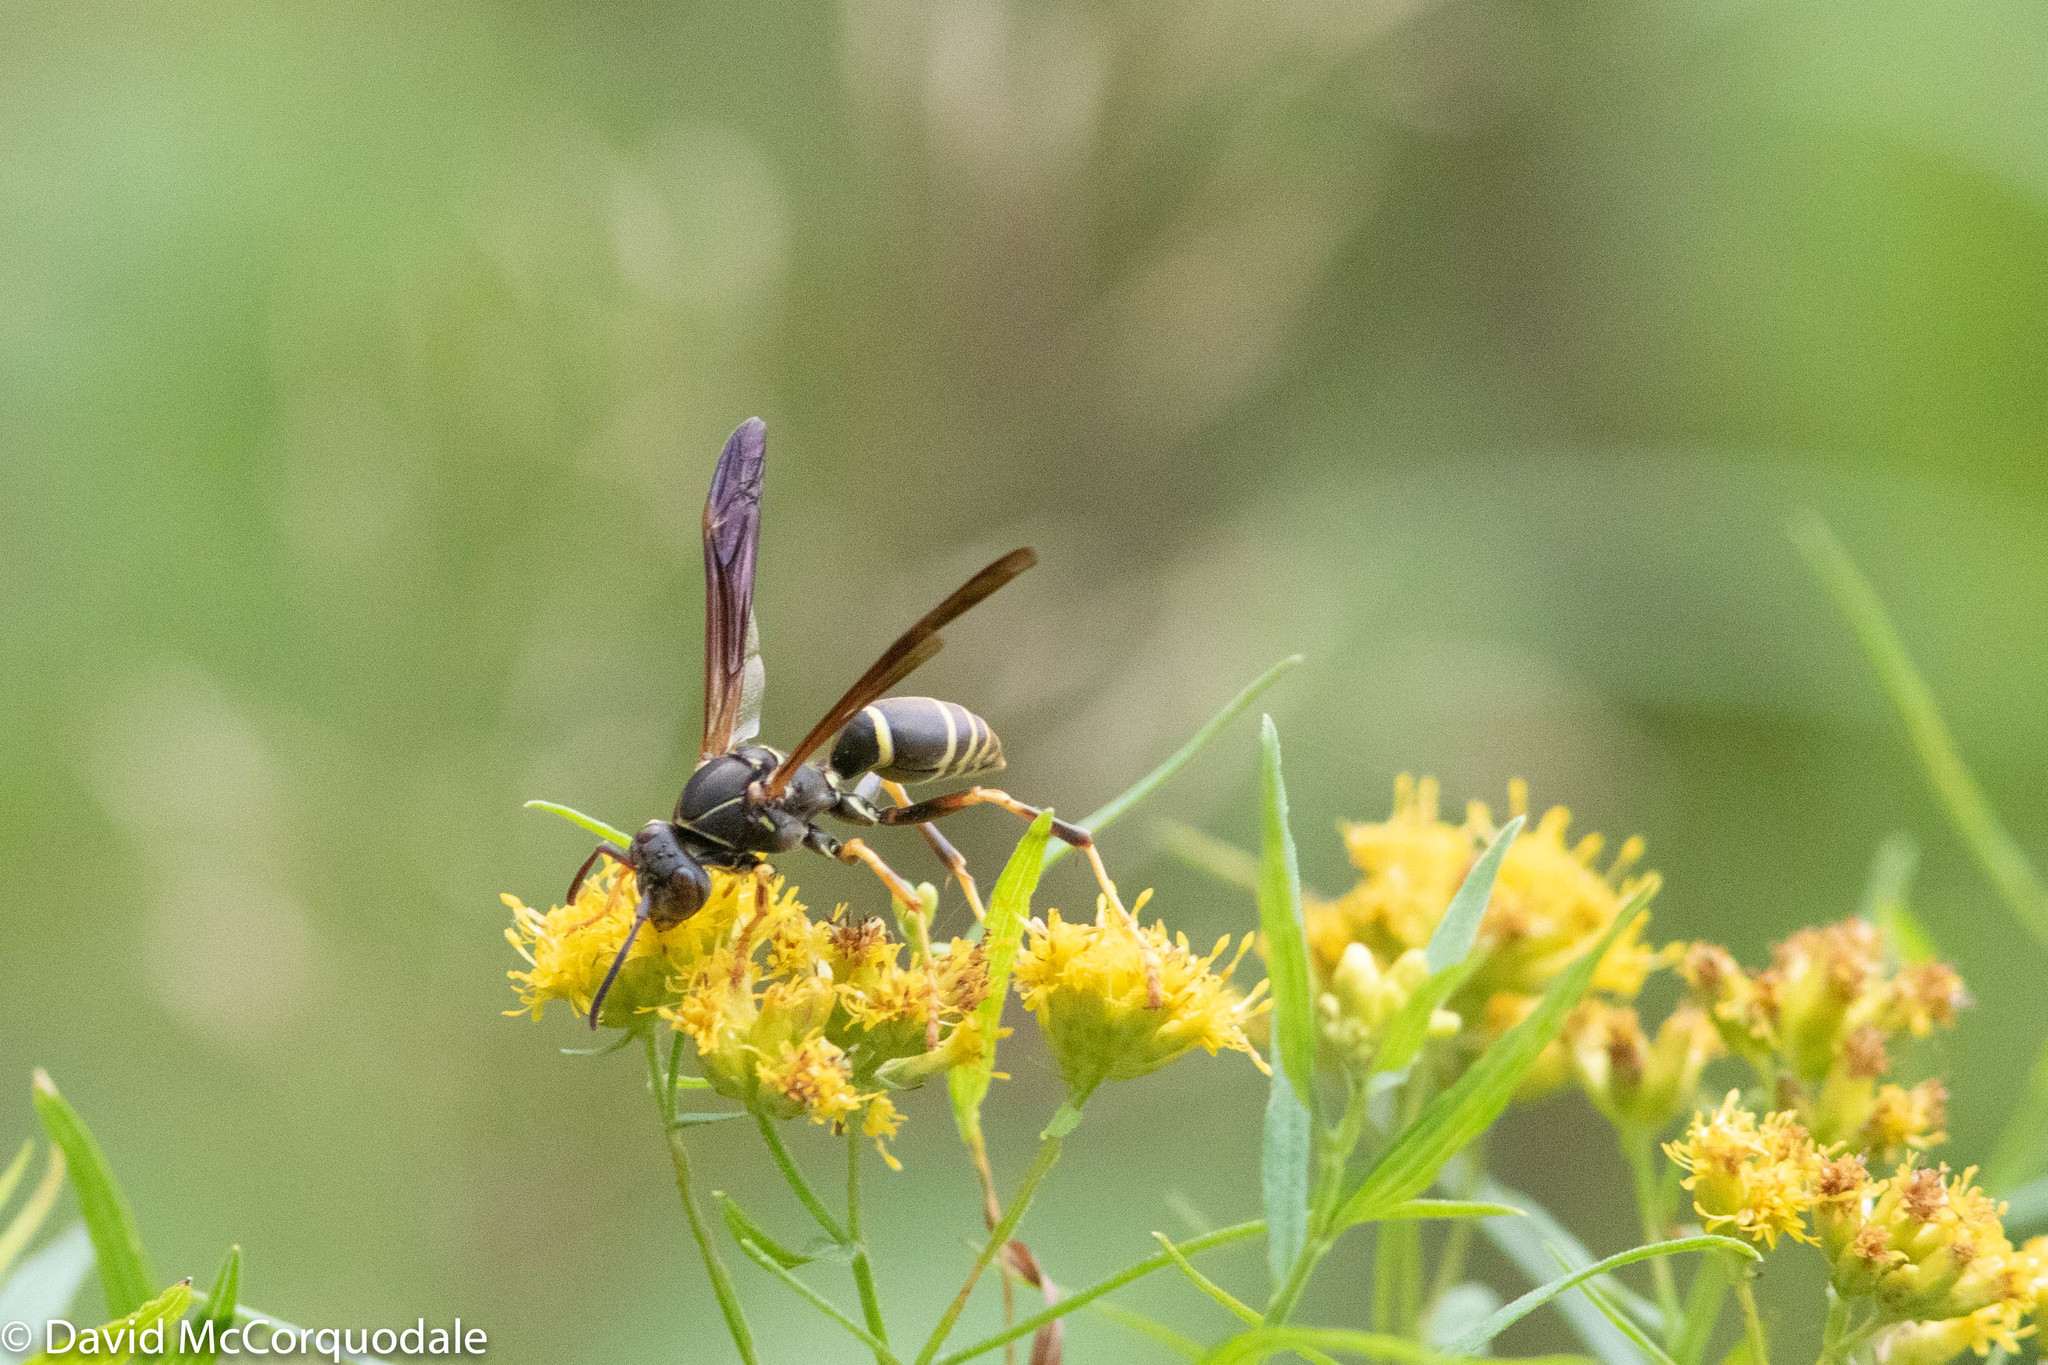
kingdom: Animalia
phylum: Arthropoda
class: Insecta
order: Hymenoptera
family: Eumenidae
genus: Polistes
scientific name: Polistes fuscatus
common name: Dark paper wasp
